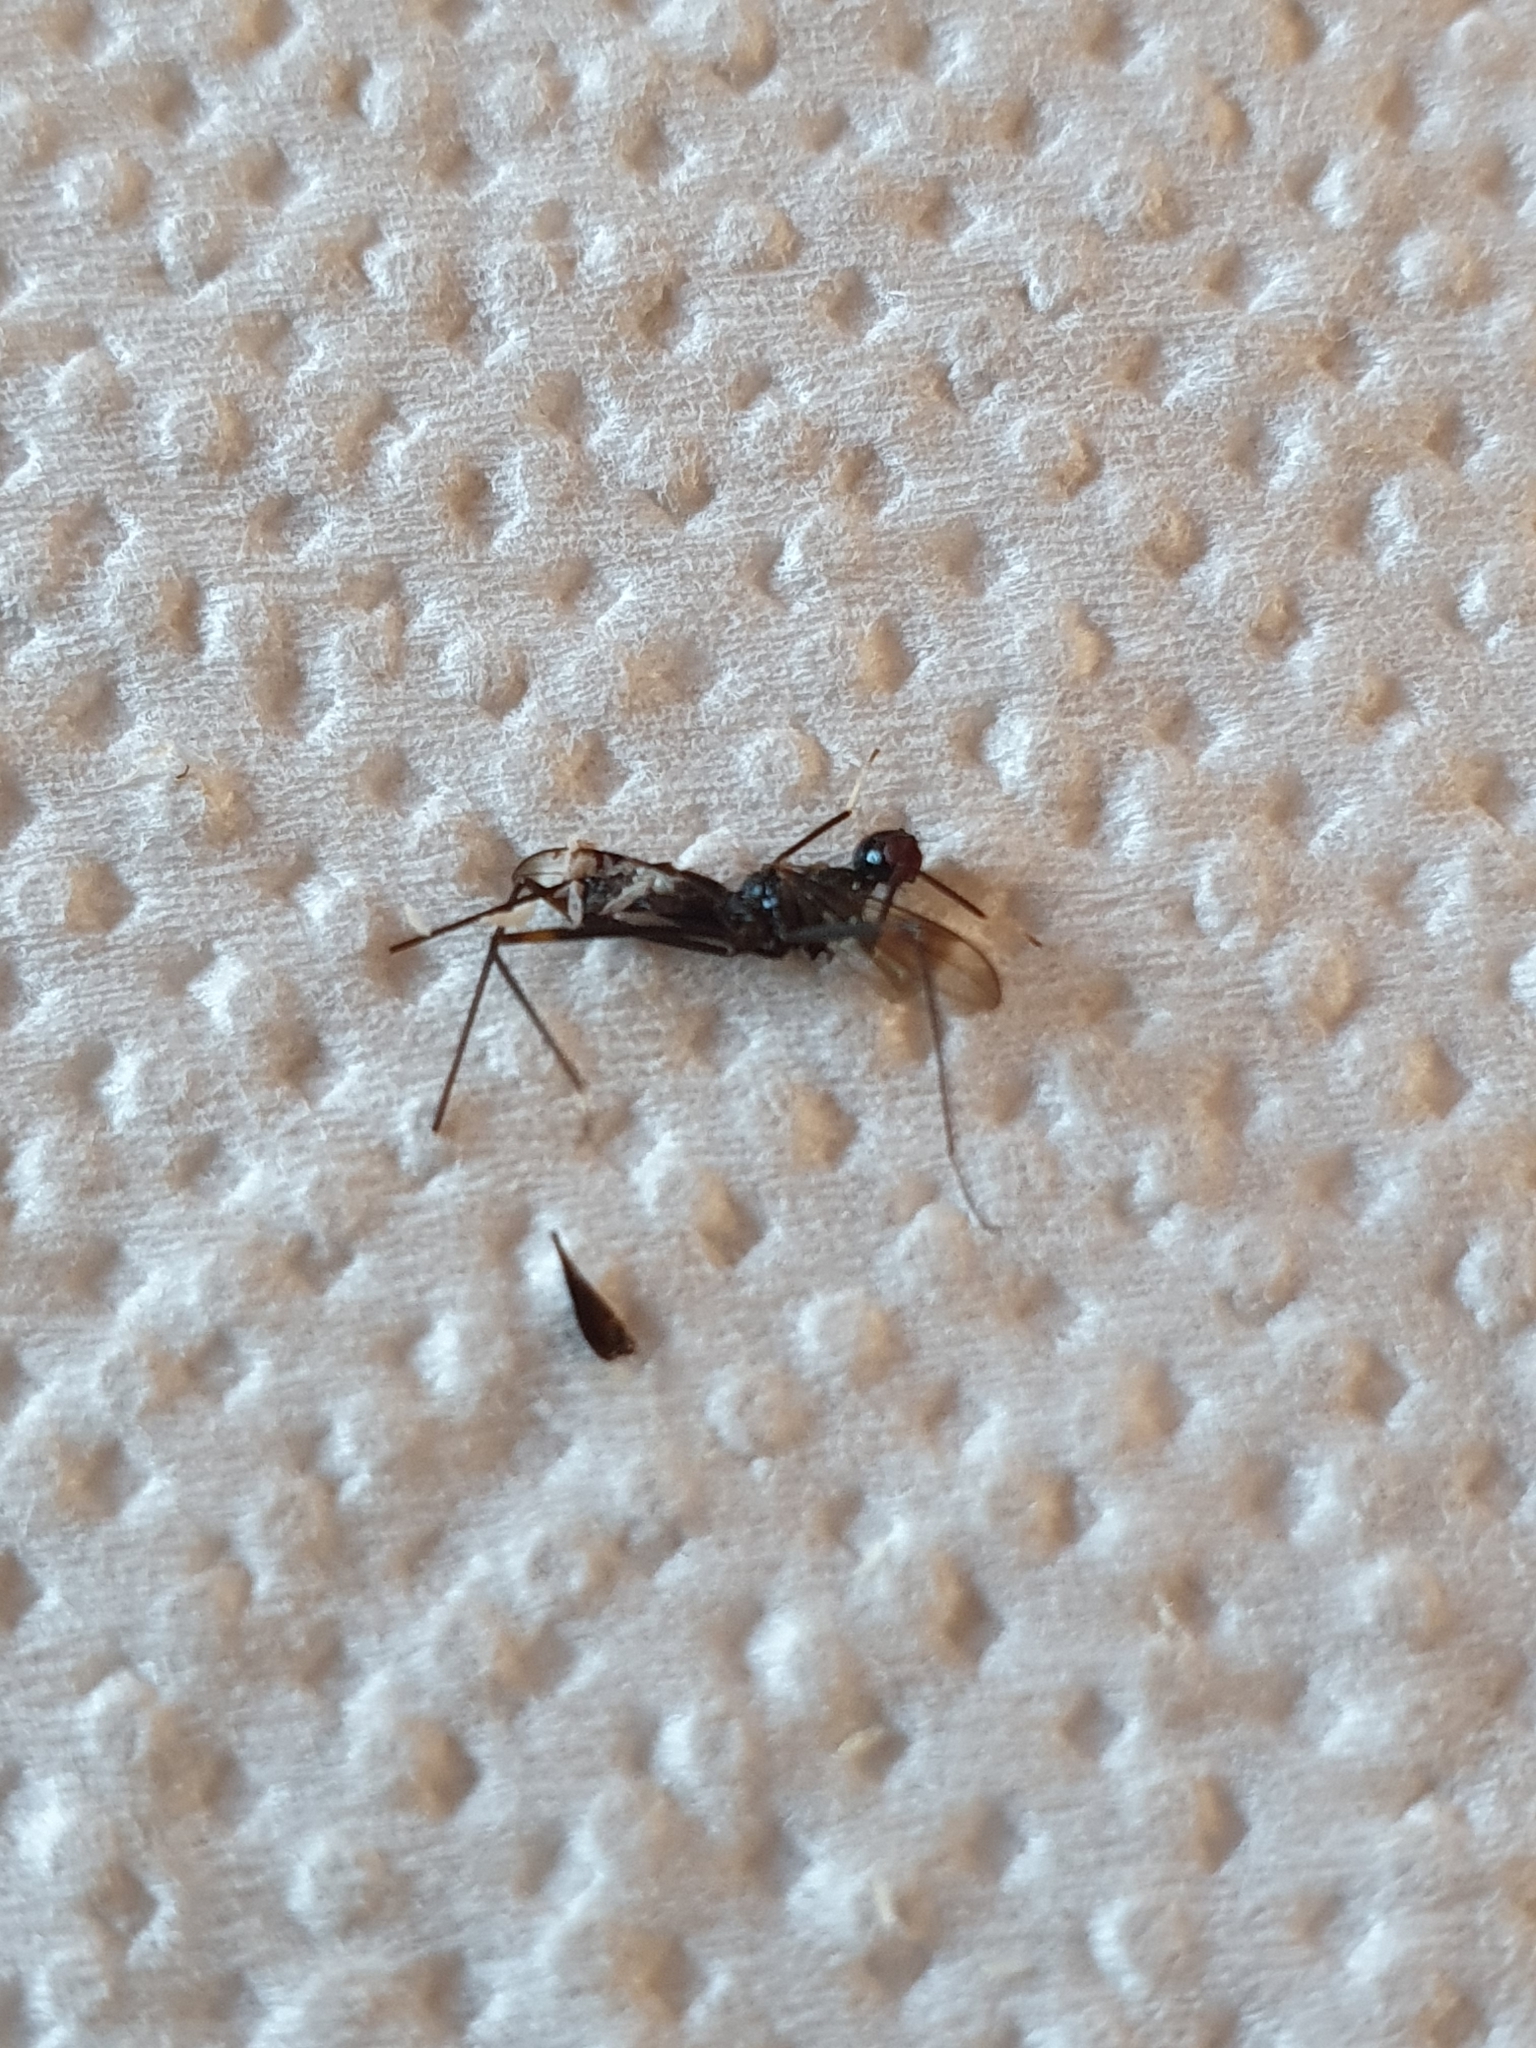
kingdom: Animalia
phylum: Arthropoda
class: Insecta
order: Diptera
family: Micropezidae
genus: Rainieria
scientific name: Rainieria calceata
